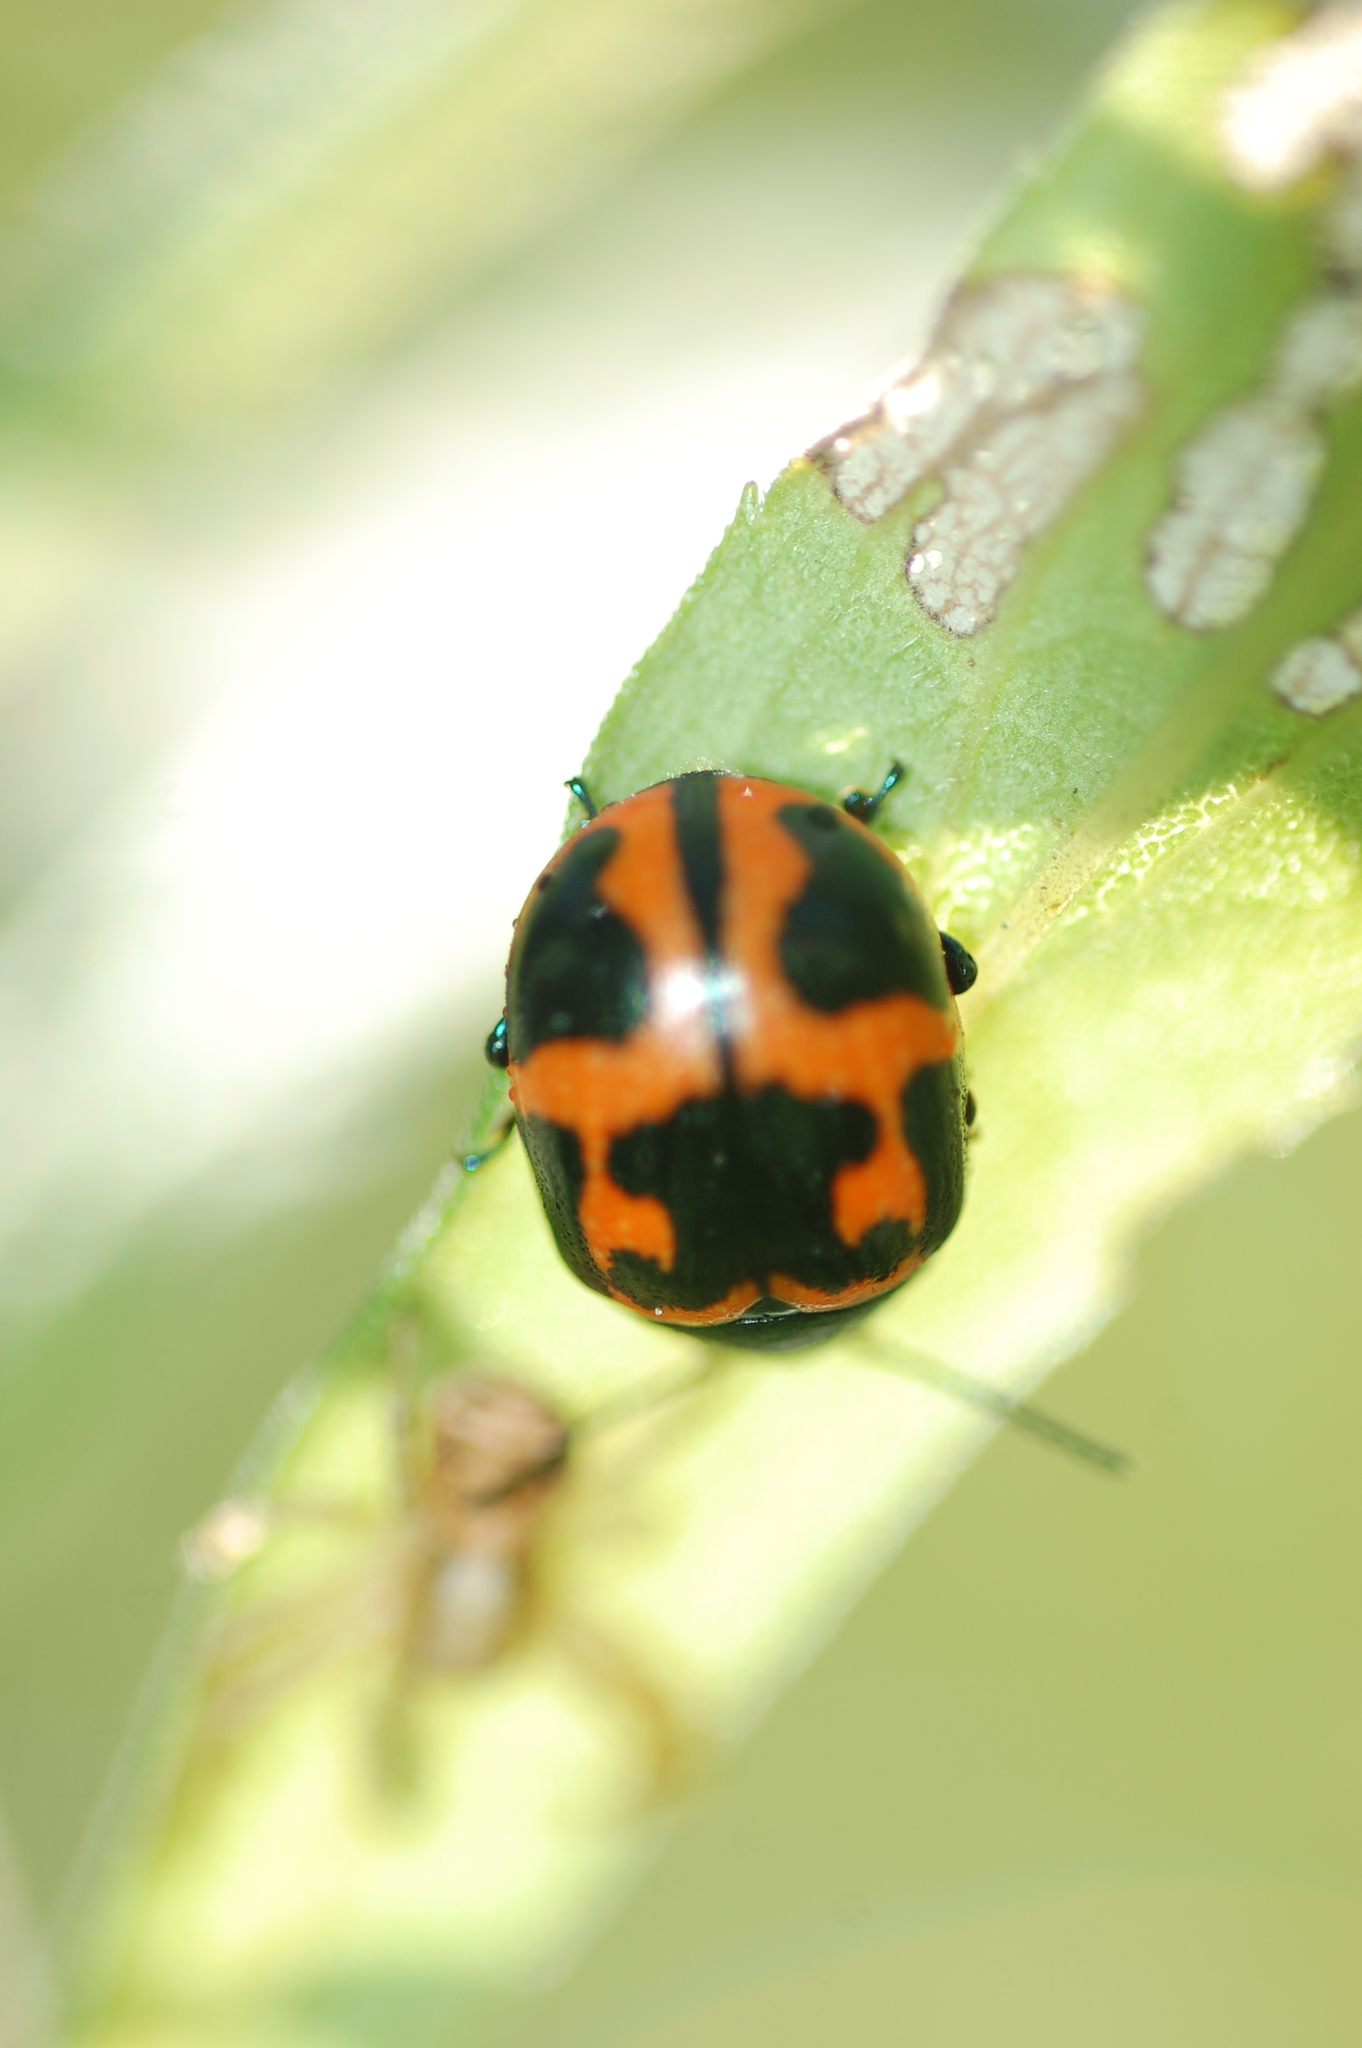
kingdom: Animalia
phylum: Arthropoda
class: Insecta
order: Coleoptera
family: Chrysomelidae
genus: Labidomera
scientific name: Labidomera clivicollis
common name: Swamp milkweed leaf beetle
